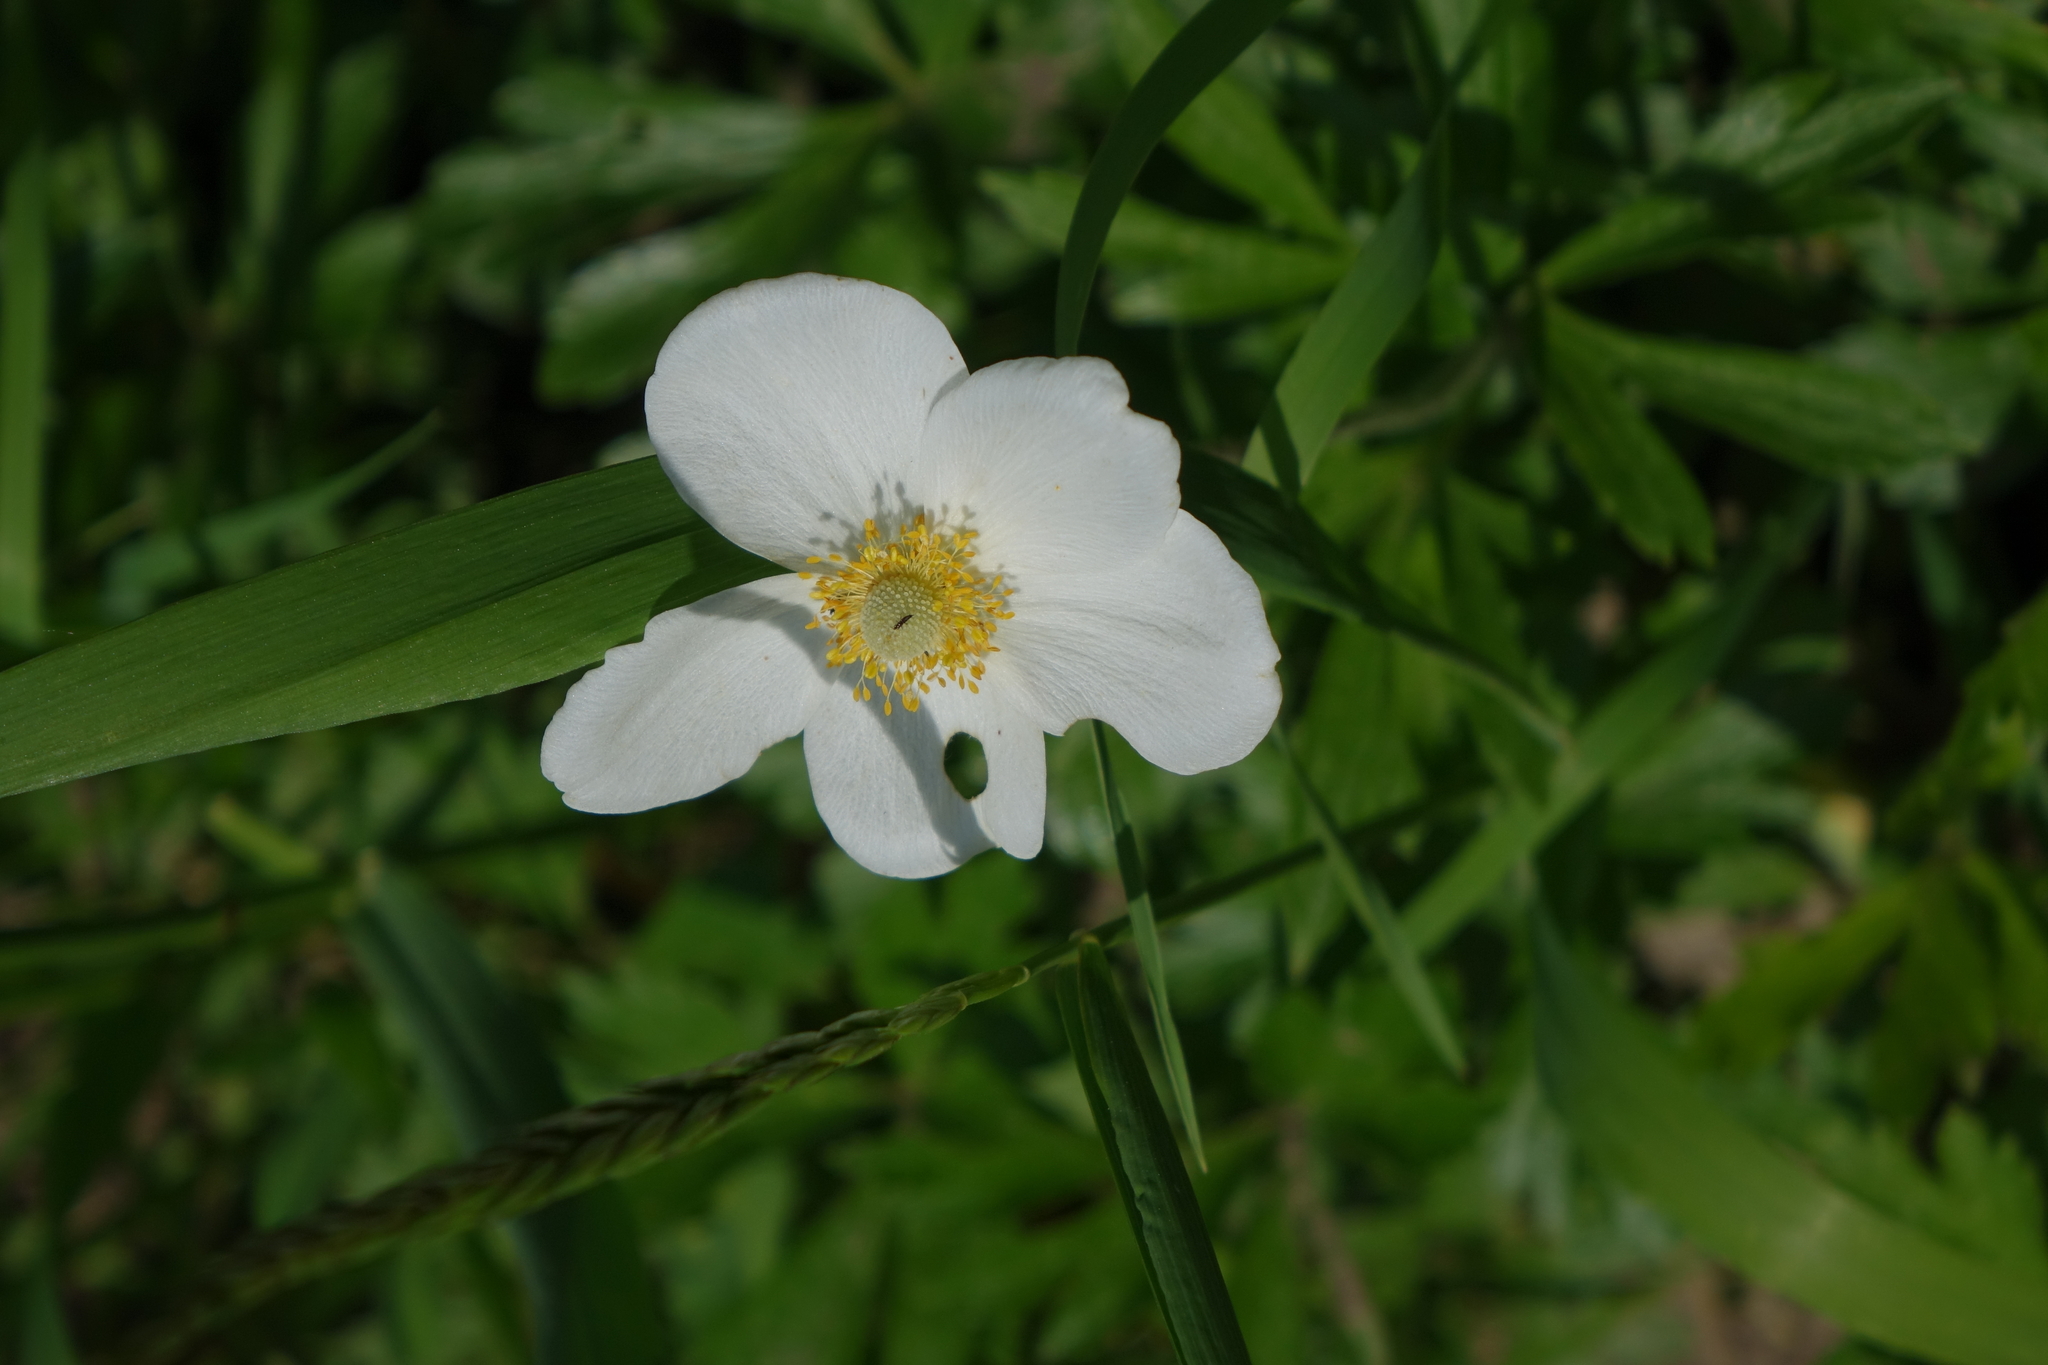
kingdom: Plantae
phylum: Tracheophyta
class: Magnoliopsida
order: Ranunculales
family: Ranunculaceae
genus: Anemone
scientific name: Anemone sylvestris
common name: Snowdrop anemone
